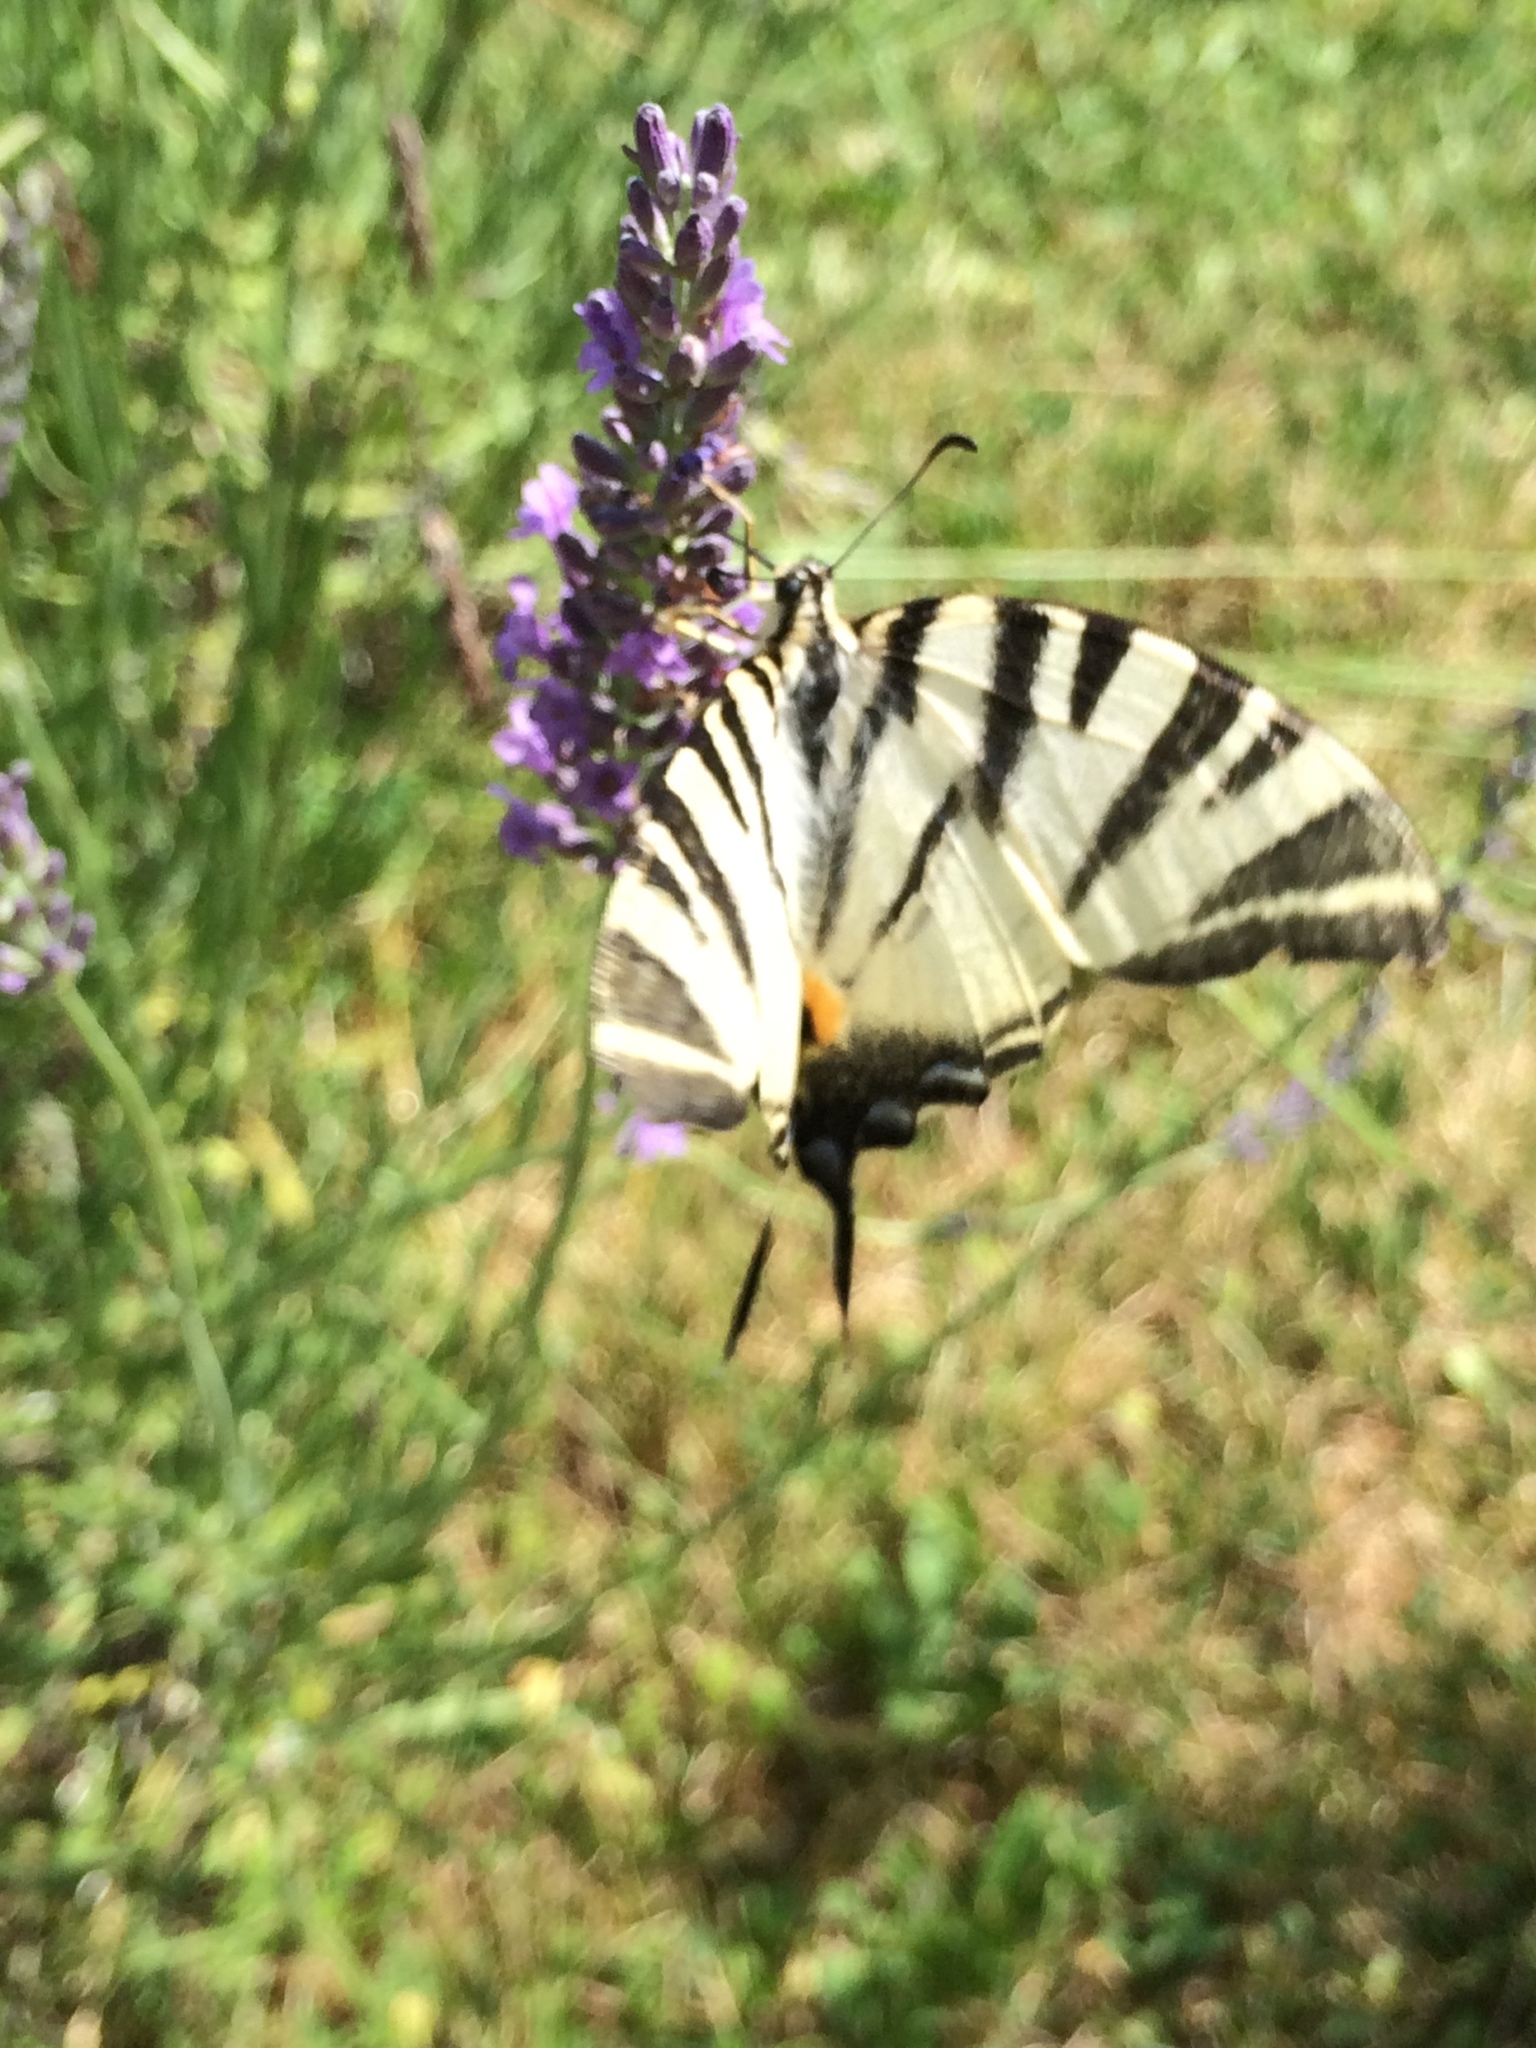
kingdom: Animalia
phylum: Arthropoda
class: Insecta
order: Lepidoptera
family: Papilionidae
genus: Iphiclides
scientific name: Iphiclides podalirius
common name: Scarce swallowtail
